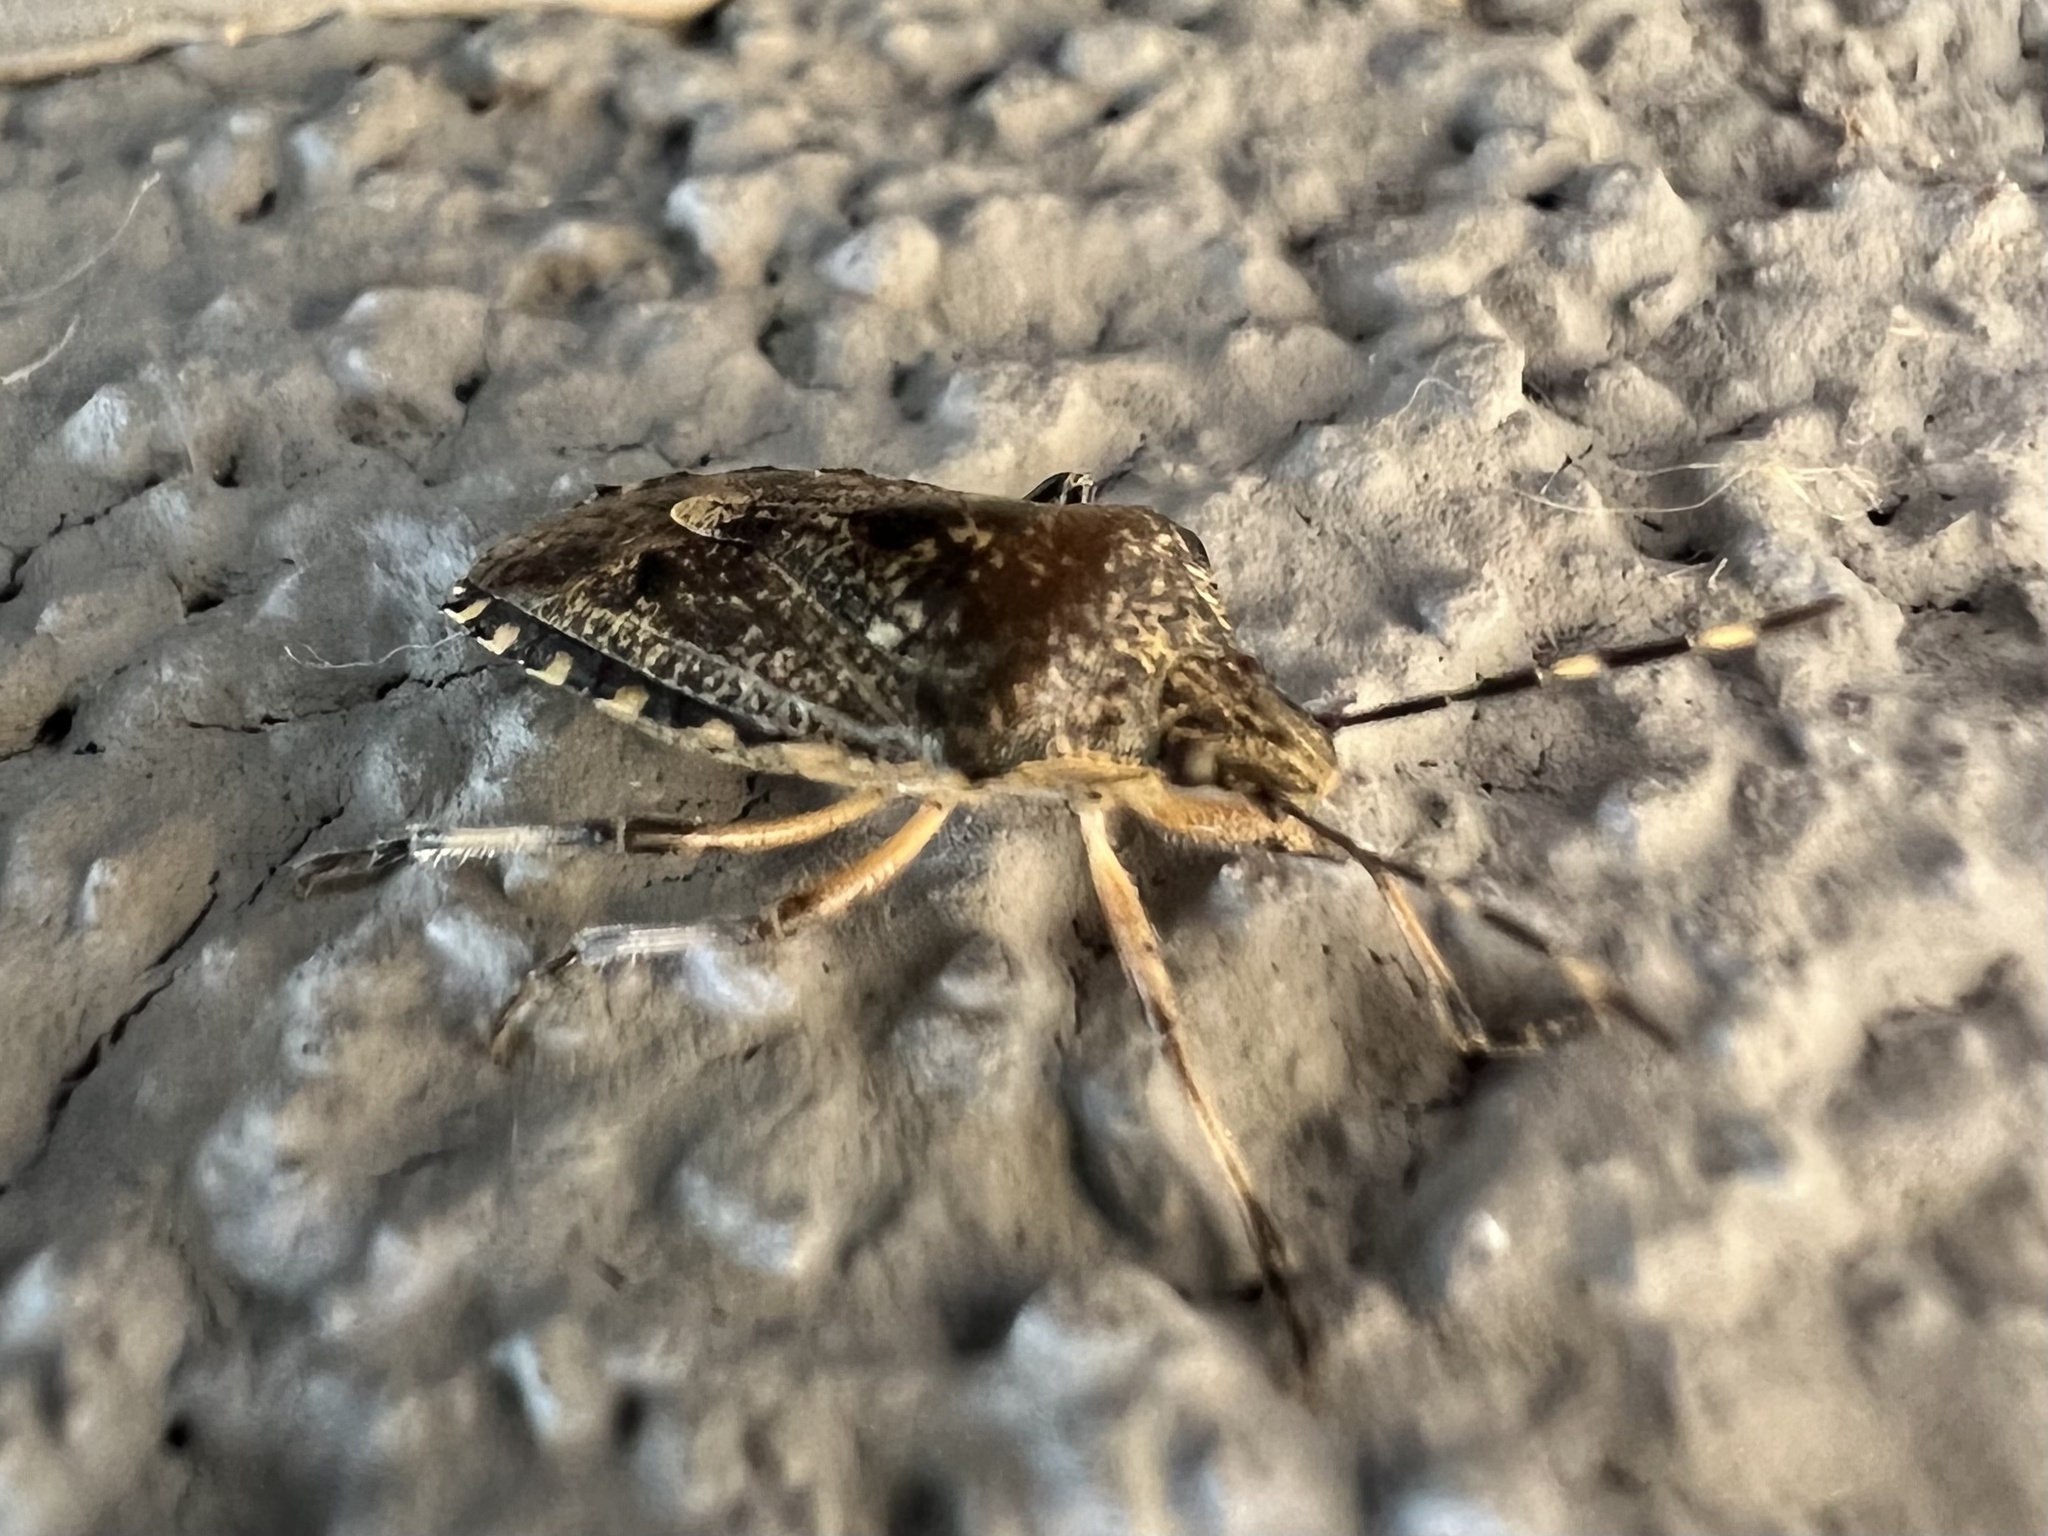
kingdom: Animalia
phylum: Arthropoda
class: Insecta
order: Hemiptera
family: Pentatomidae
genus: Rhaphigaster
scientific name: Rhaphigaster nebulosa
